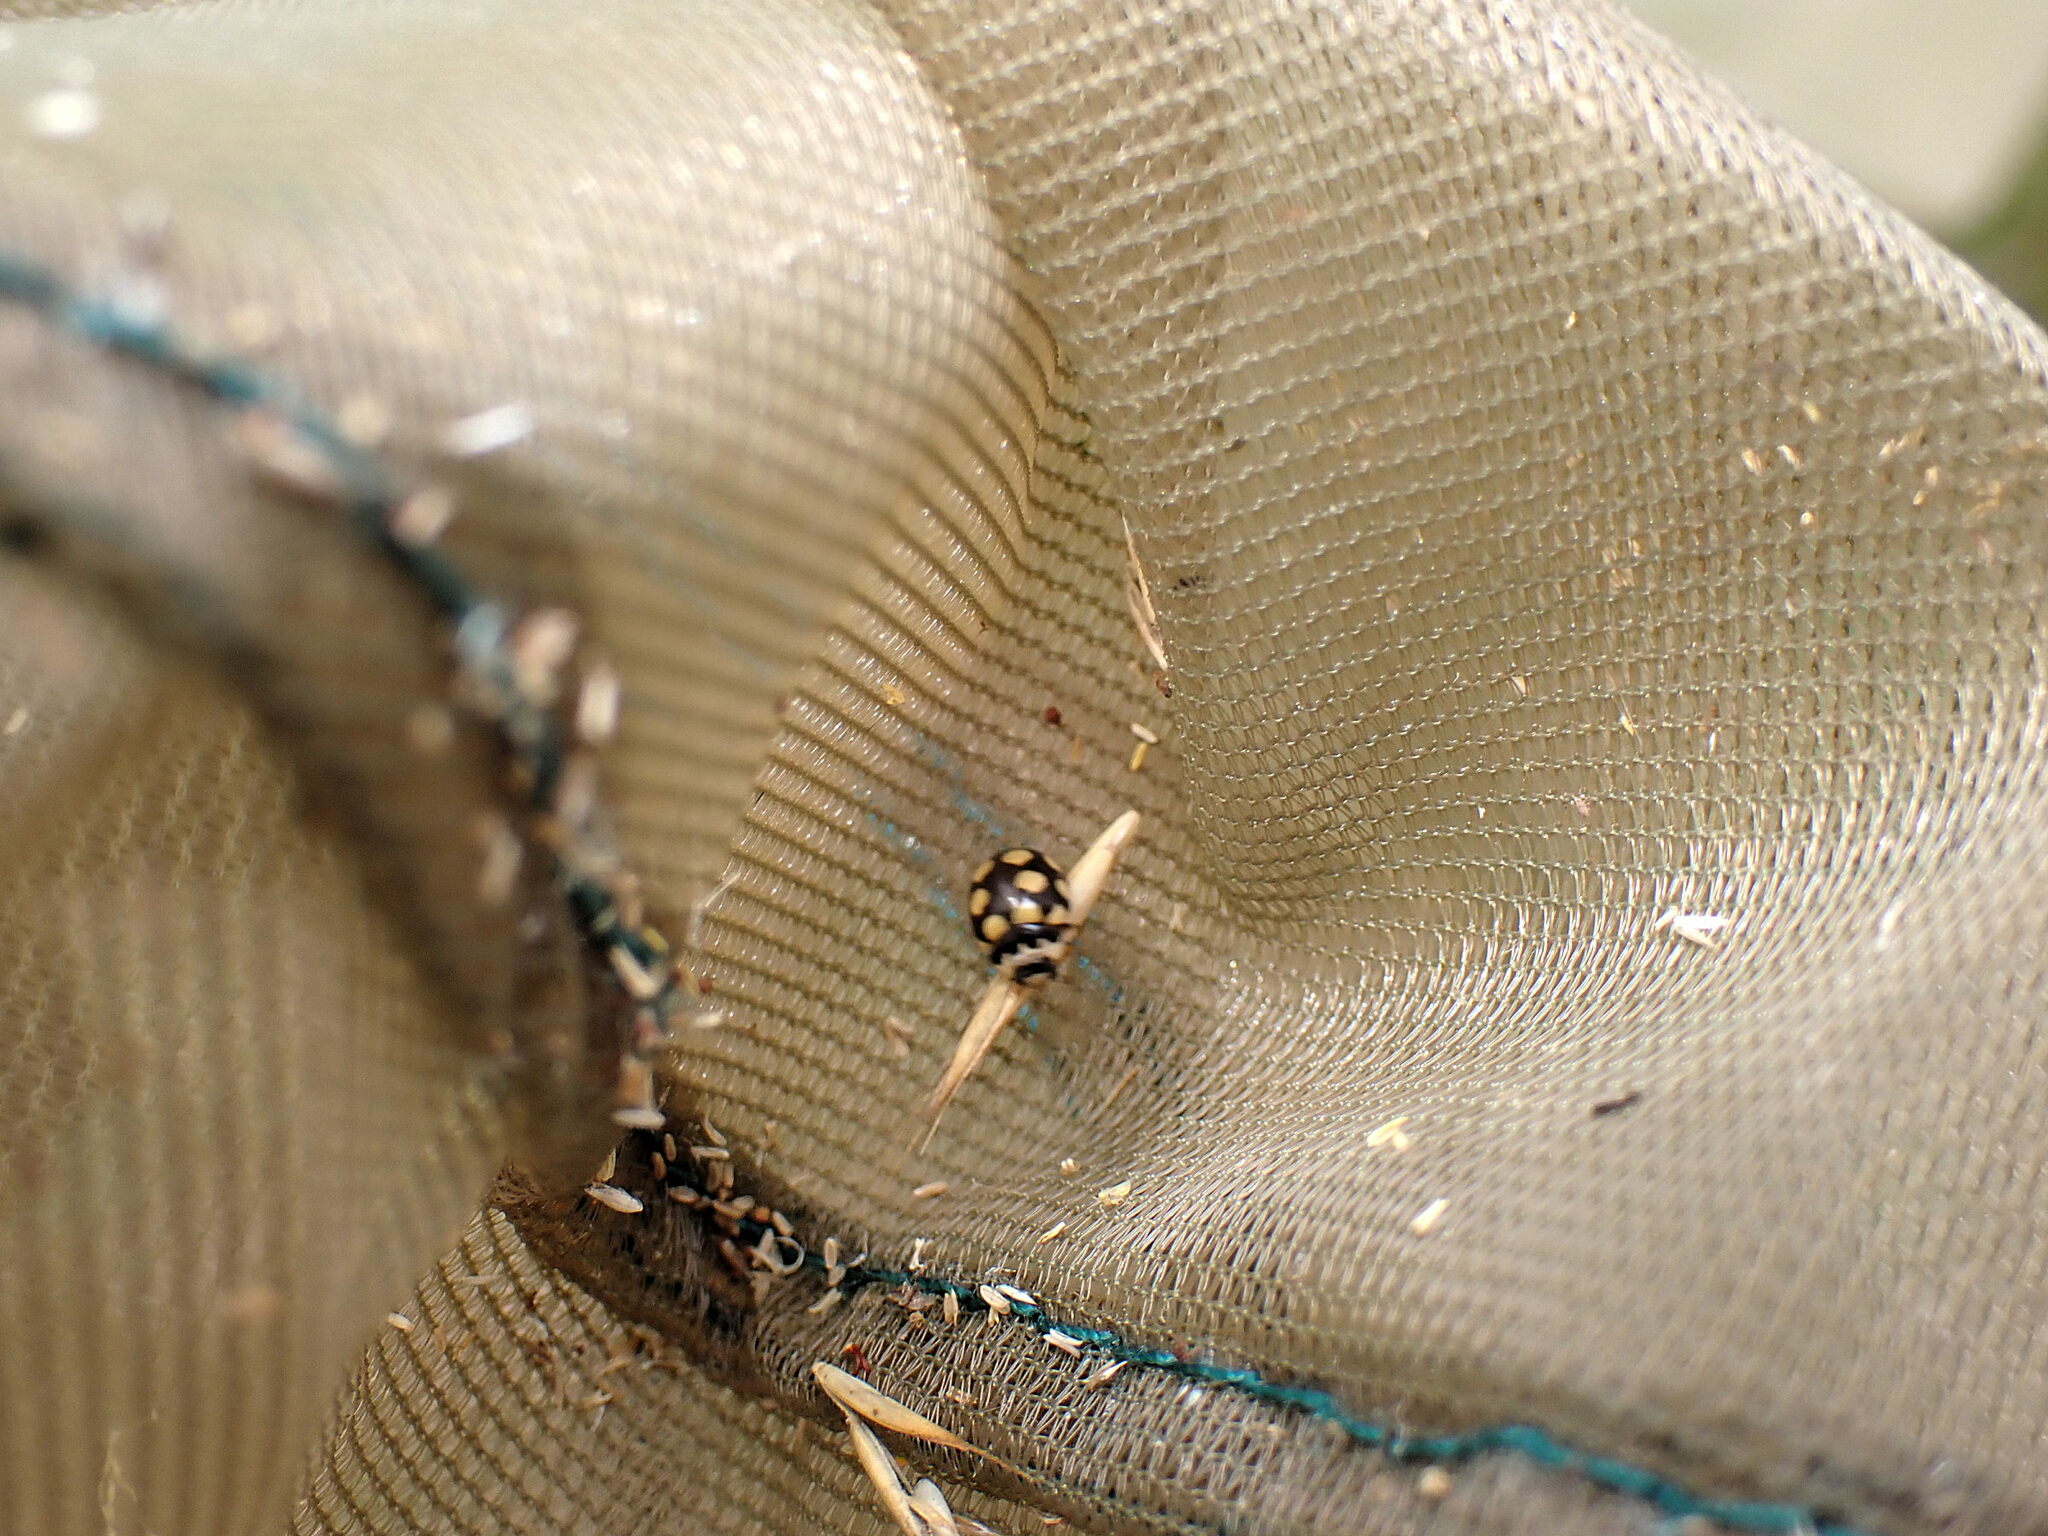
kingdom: Animalia
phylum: Arthropoda
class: Insecta
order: Coleoptera
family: Coccinellidae
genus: Coccinula
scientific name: Coccinula quatuordecimpustulata
